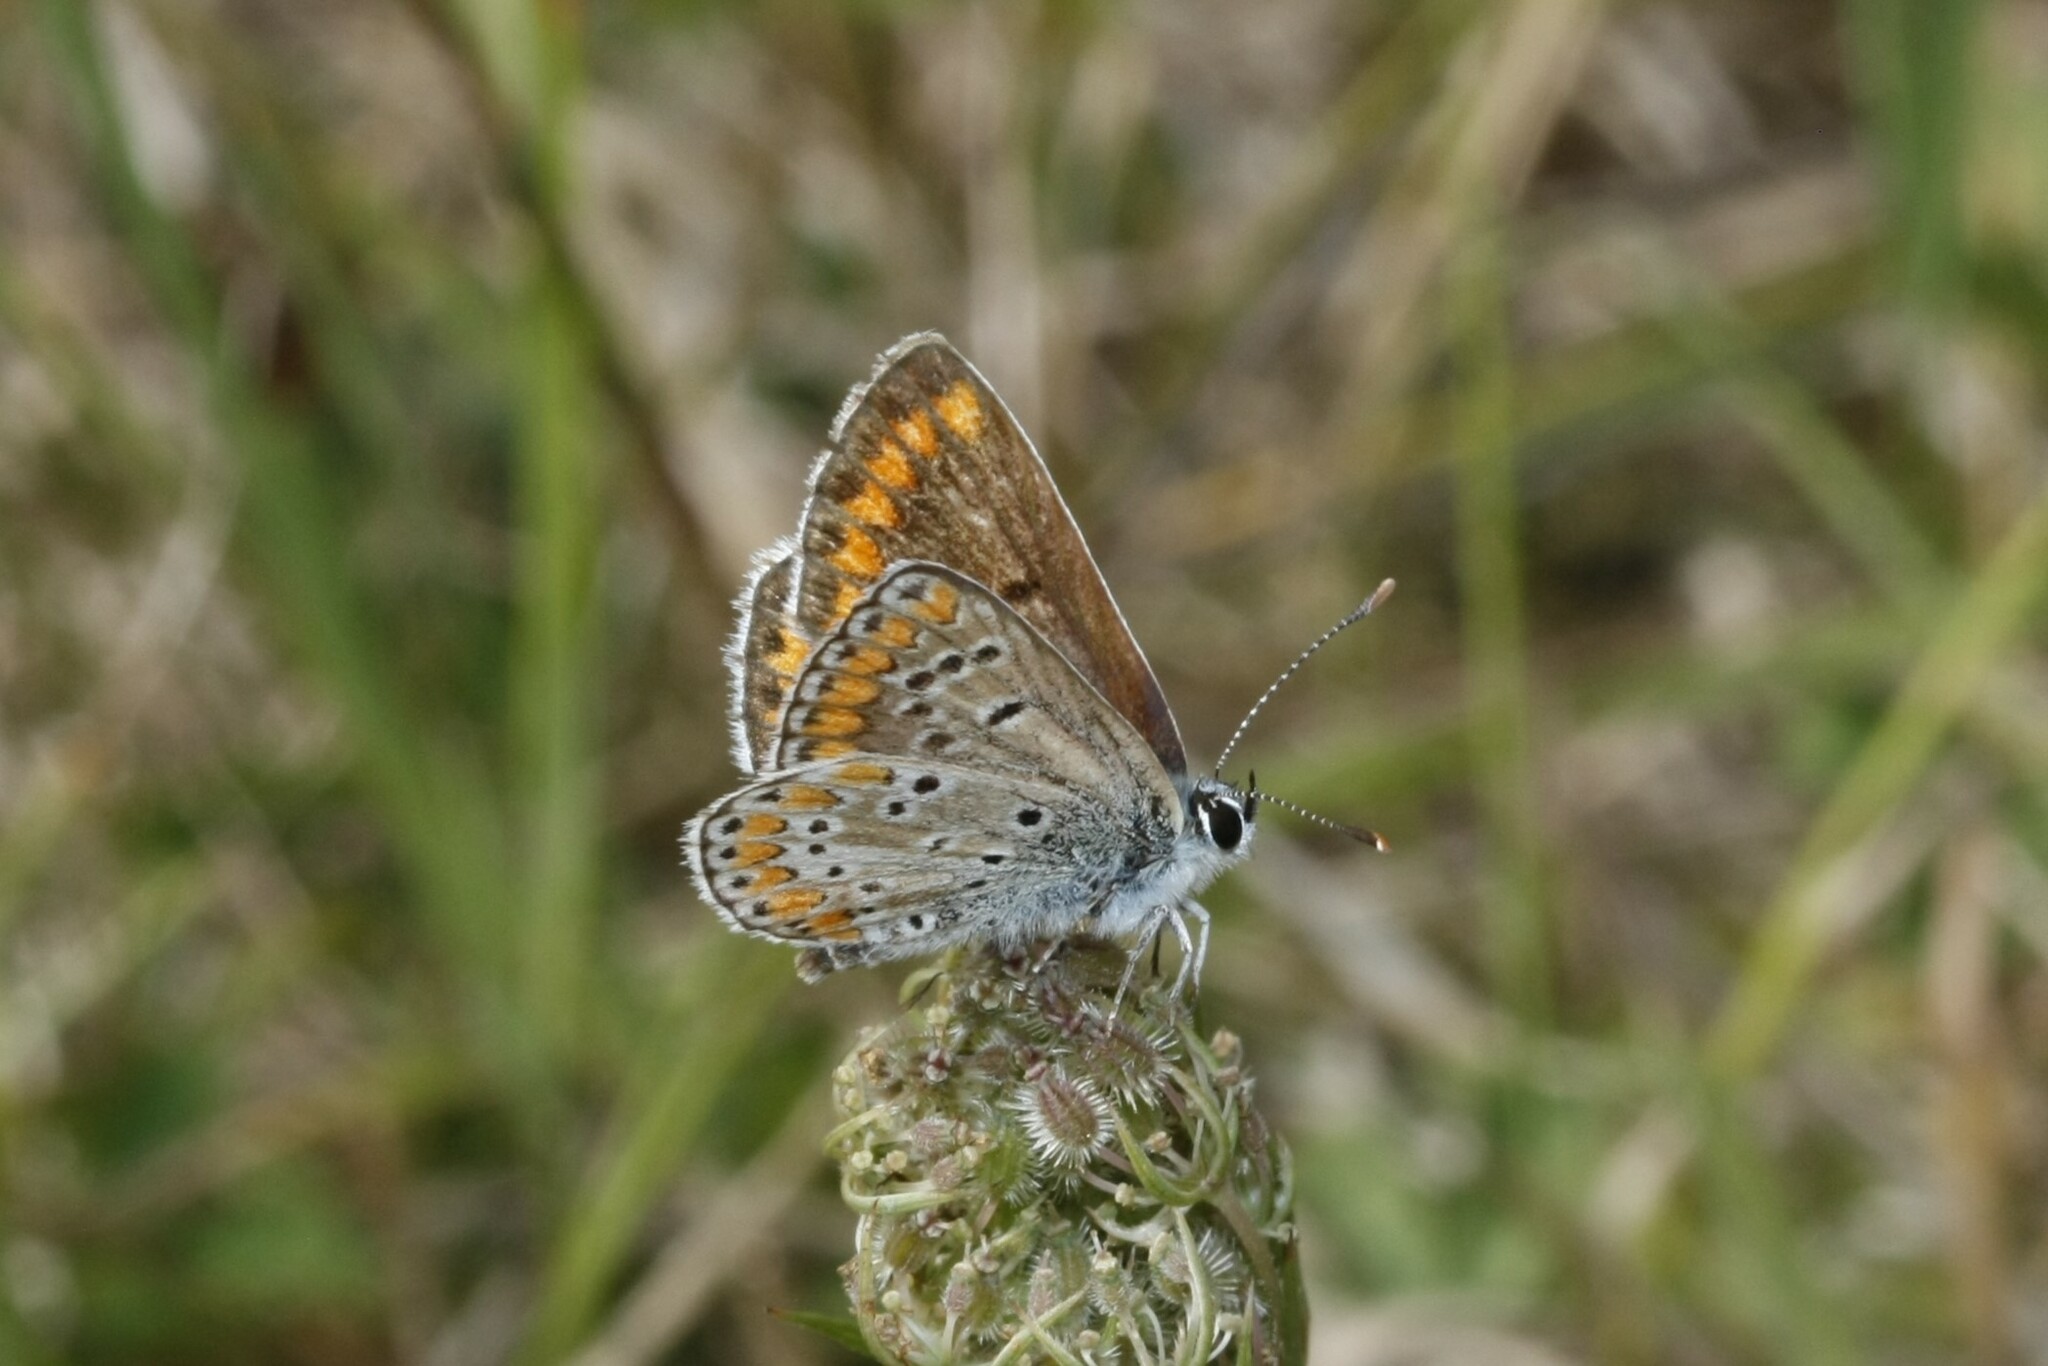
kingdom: Animalia
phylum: Arthropoda
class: Insecta
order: Lepidoptera
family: Lycaenidae
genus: Aricia
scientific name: Aricia agestis
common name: Brown argus
